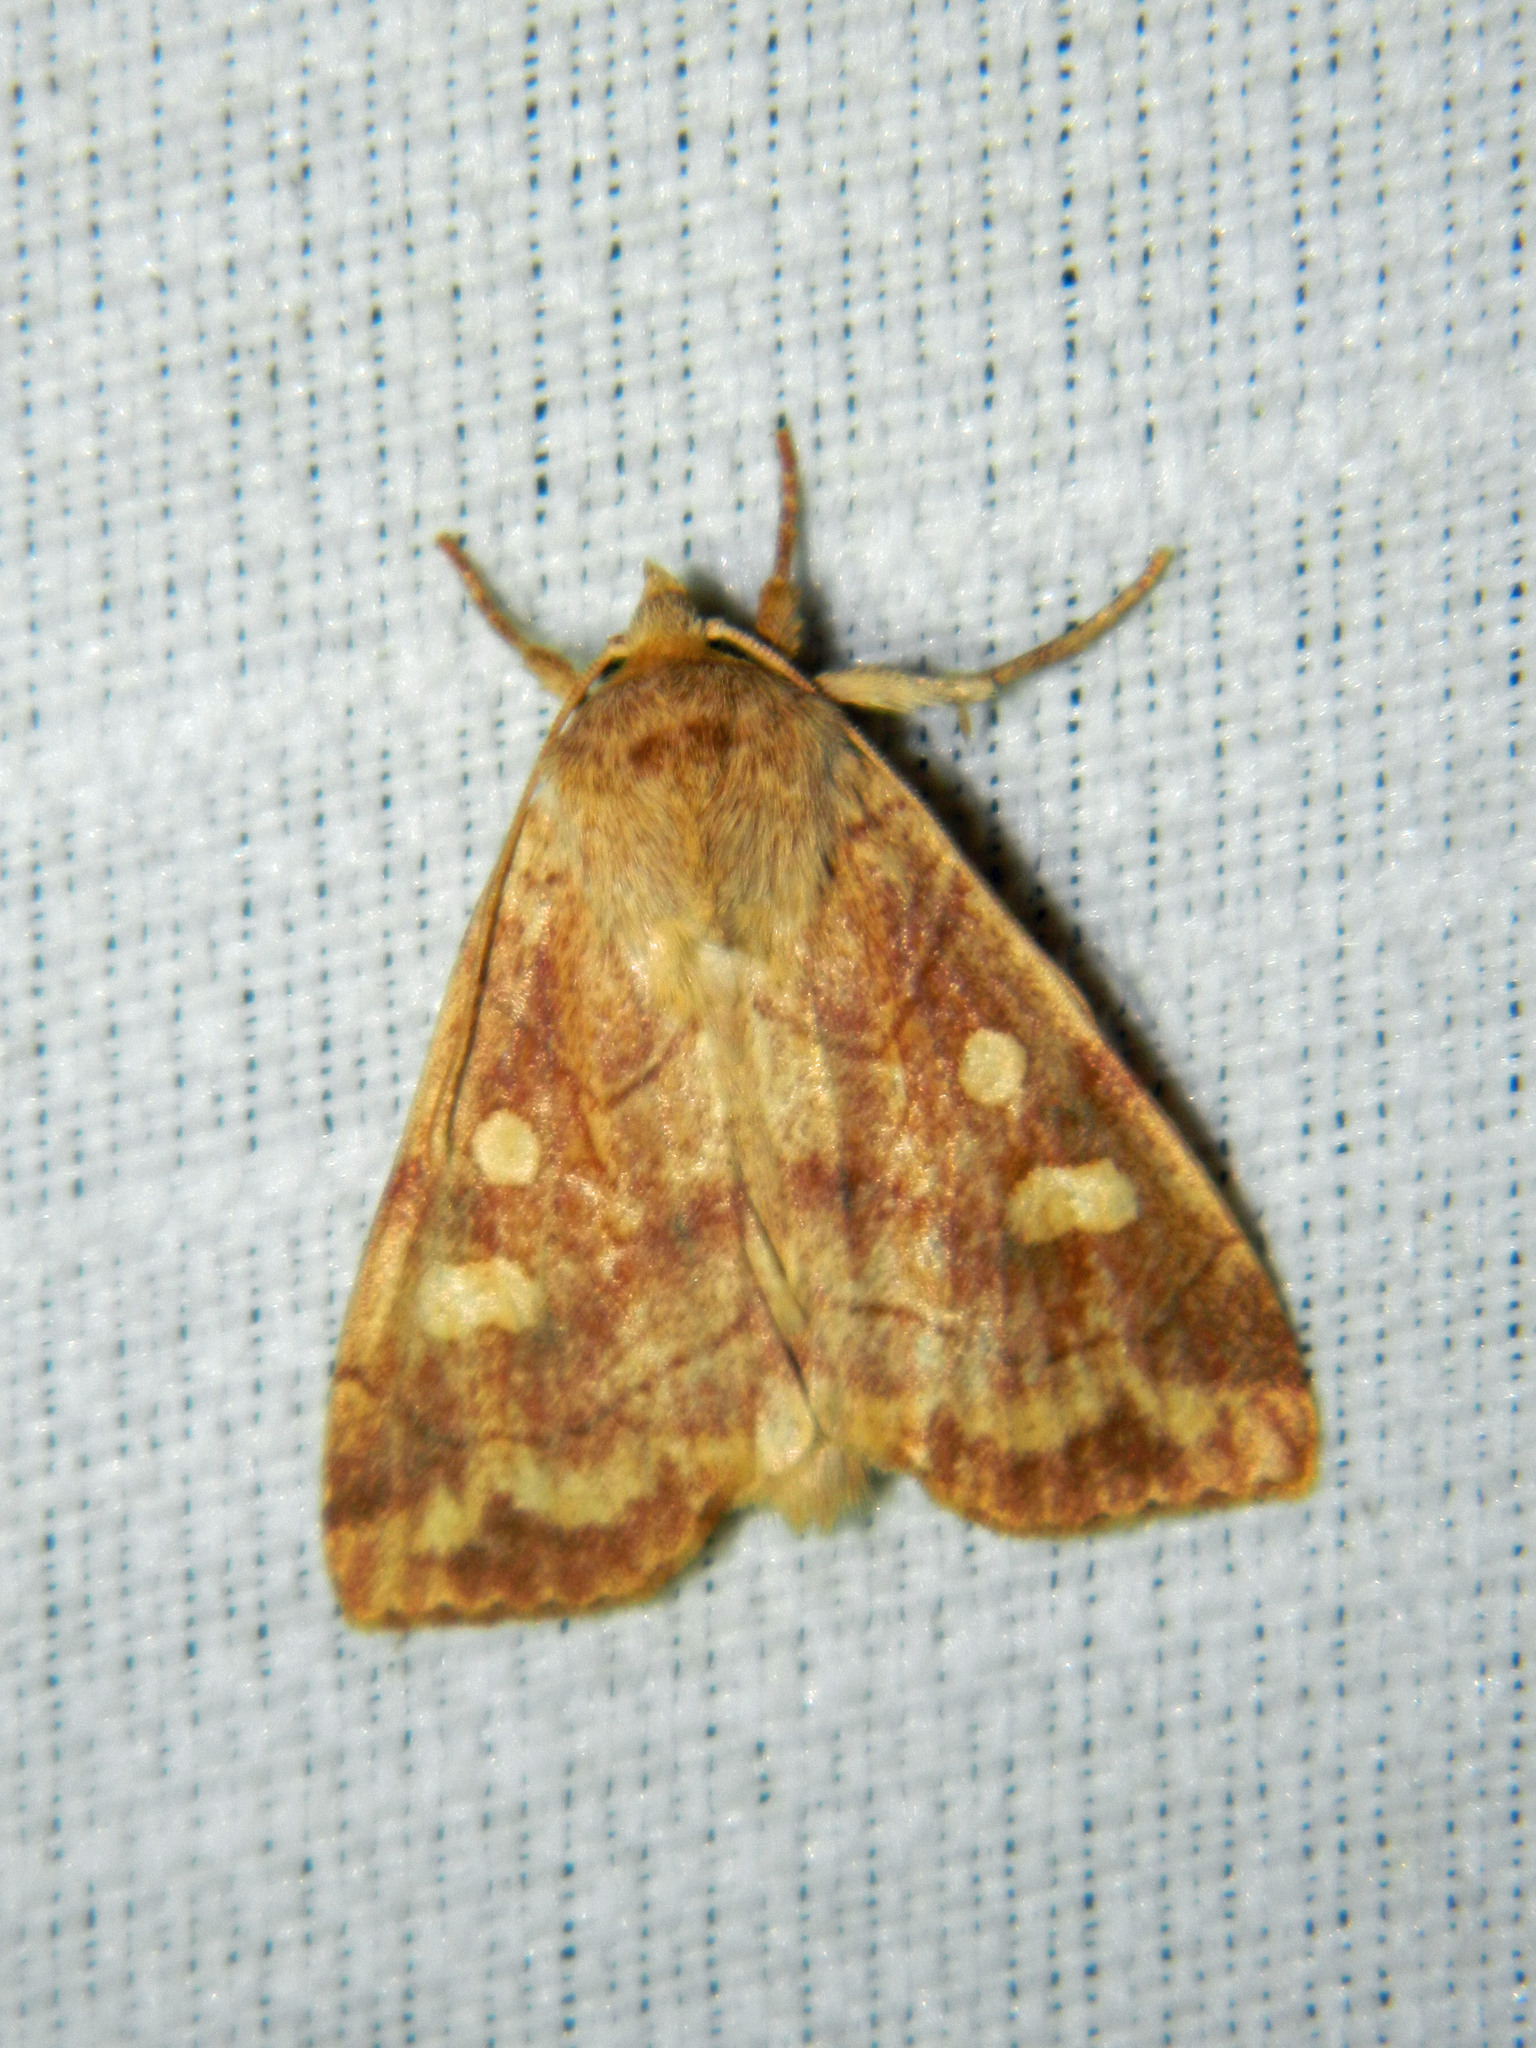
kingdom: Animalia
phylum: Arthropoda
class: Insecta
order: Lepidoptera
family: Noctuidae
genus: Enargia
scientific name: Enargia decolor
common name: Aspen twoleaf tier moth
